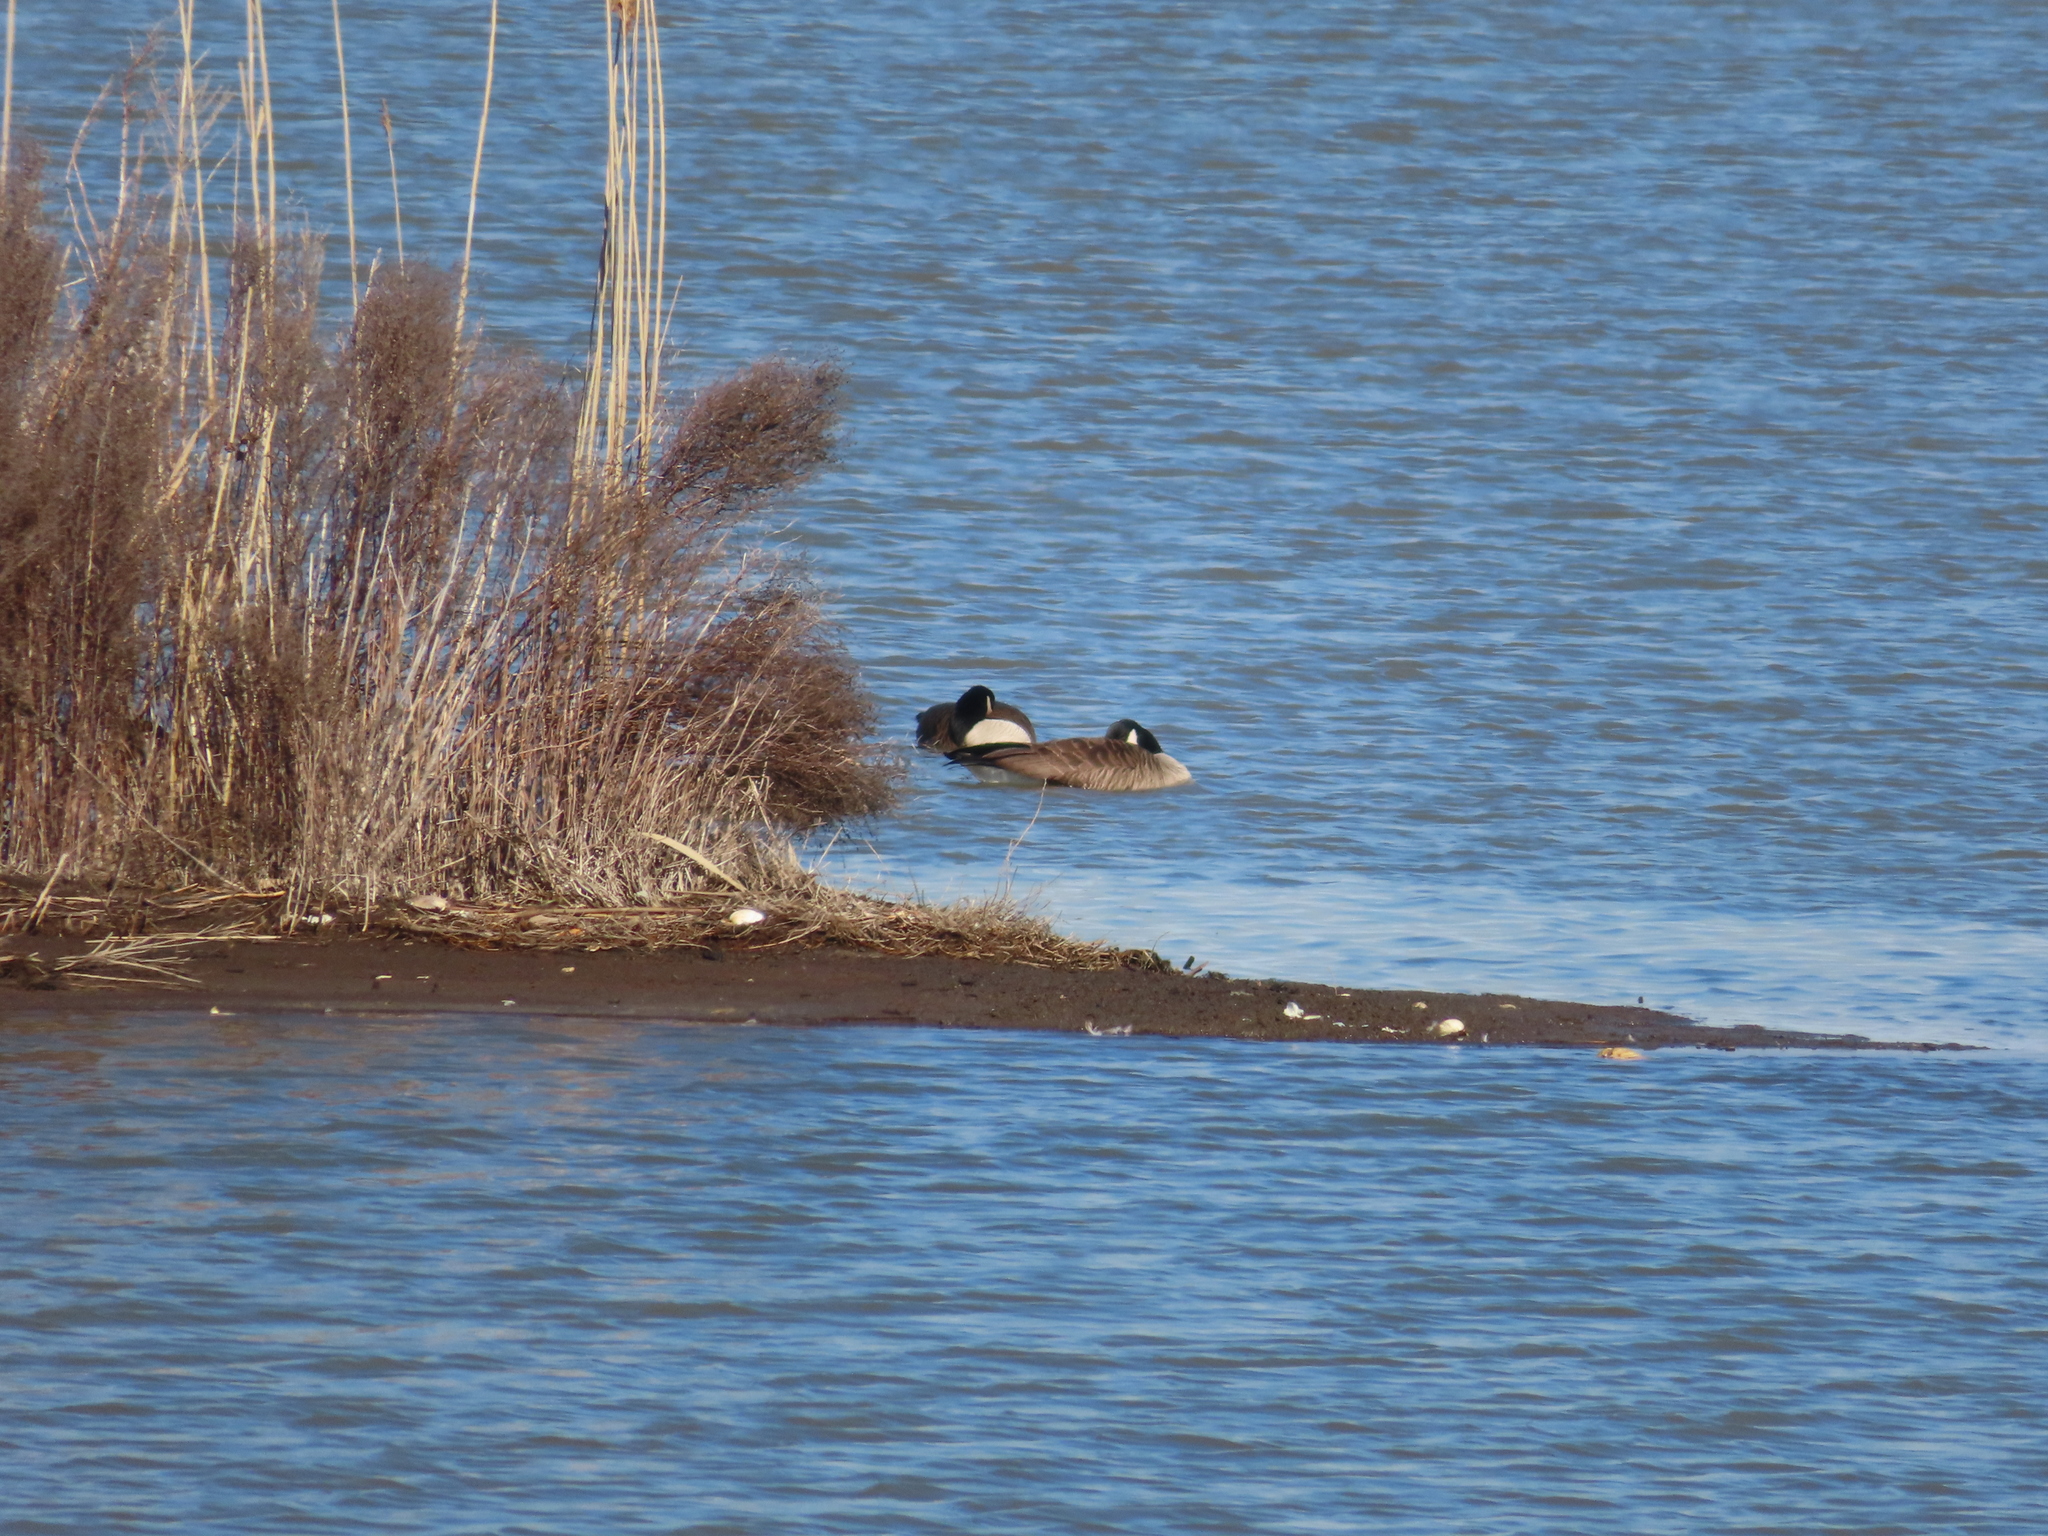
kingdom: Animalia
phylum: Chordata
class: Aves
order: Anseriformes
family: Anatidae
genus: Branta
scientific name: Branta canadensis
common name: Canada goose
